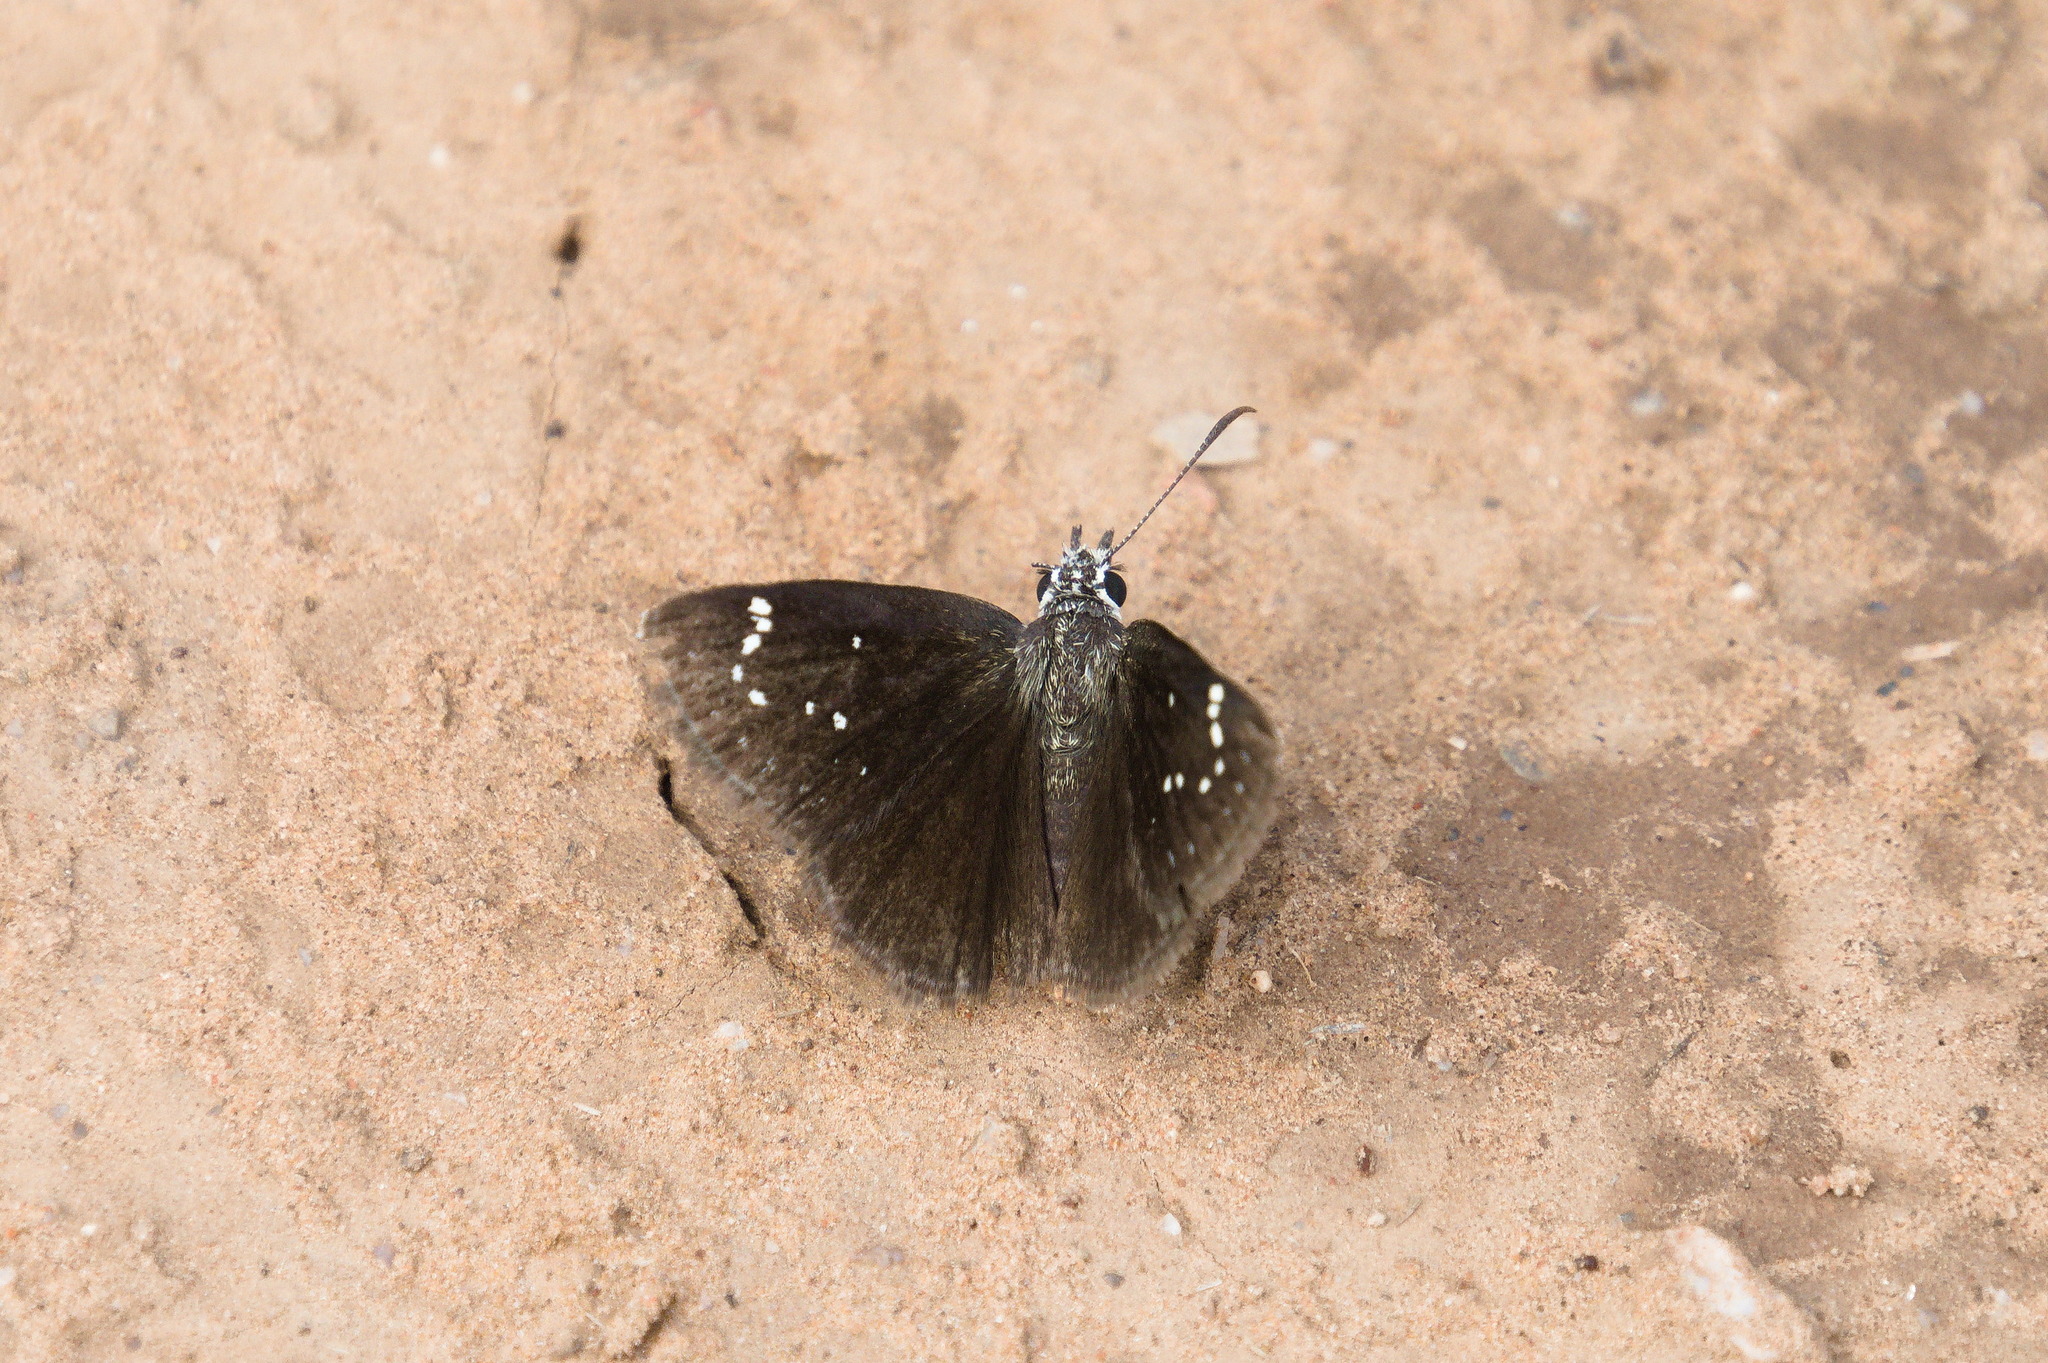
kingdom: Animalia
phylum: Arthropoda
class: Insecta
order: Lepidoptera
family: Hesperiidae
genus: Pholisora
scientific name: Pholisora catullus
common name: Common sootywing
